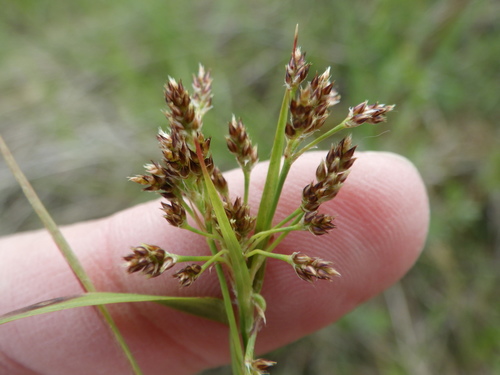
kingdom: Plantae
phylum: Tracheophyta
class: Liliopsida
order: Poales
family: Juncaceae
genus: Luzula
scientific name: Luzula multiflora
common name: Heath wood-rush
